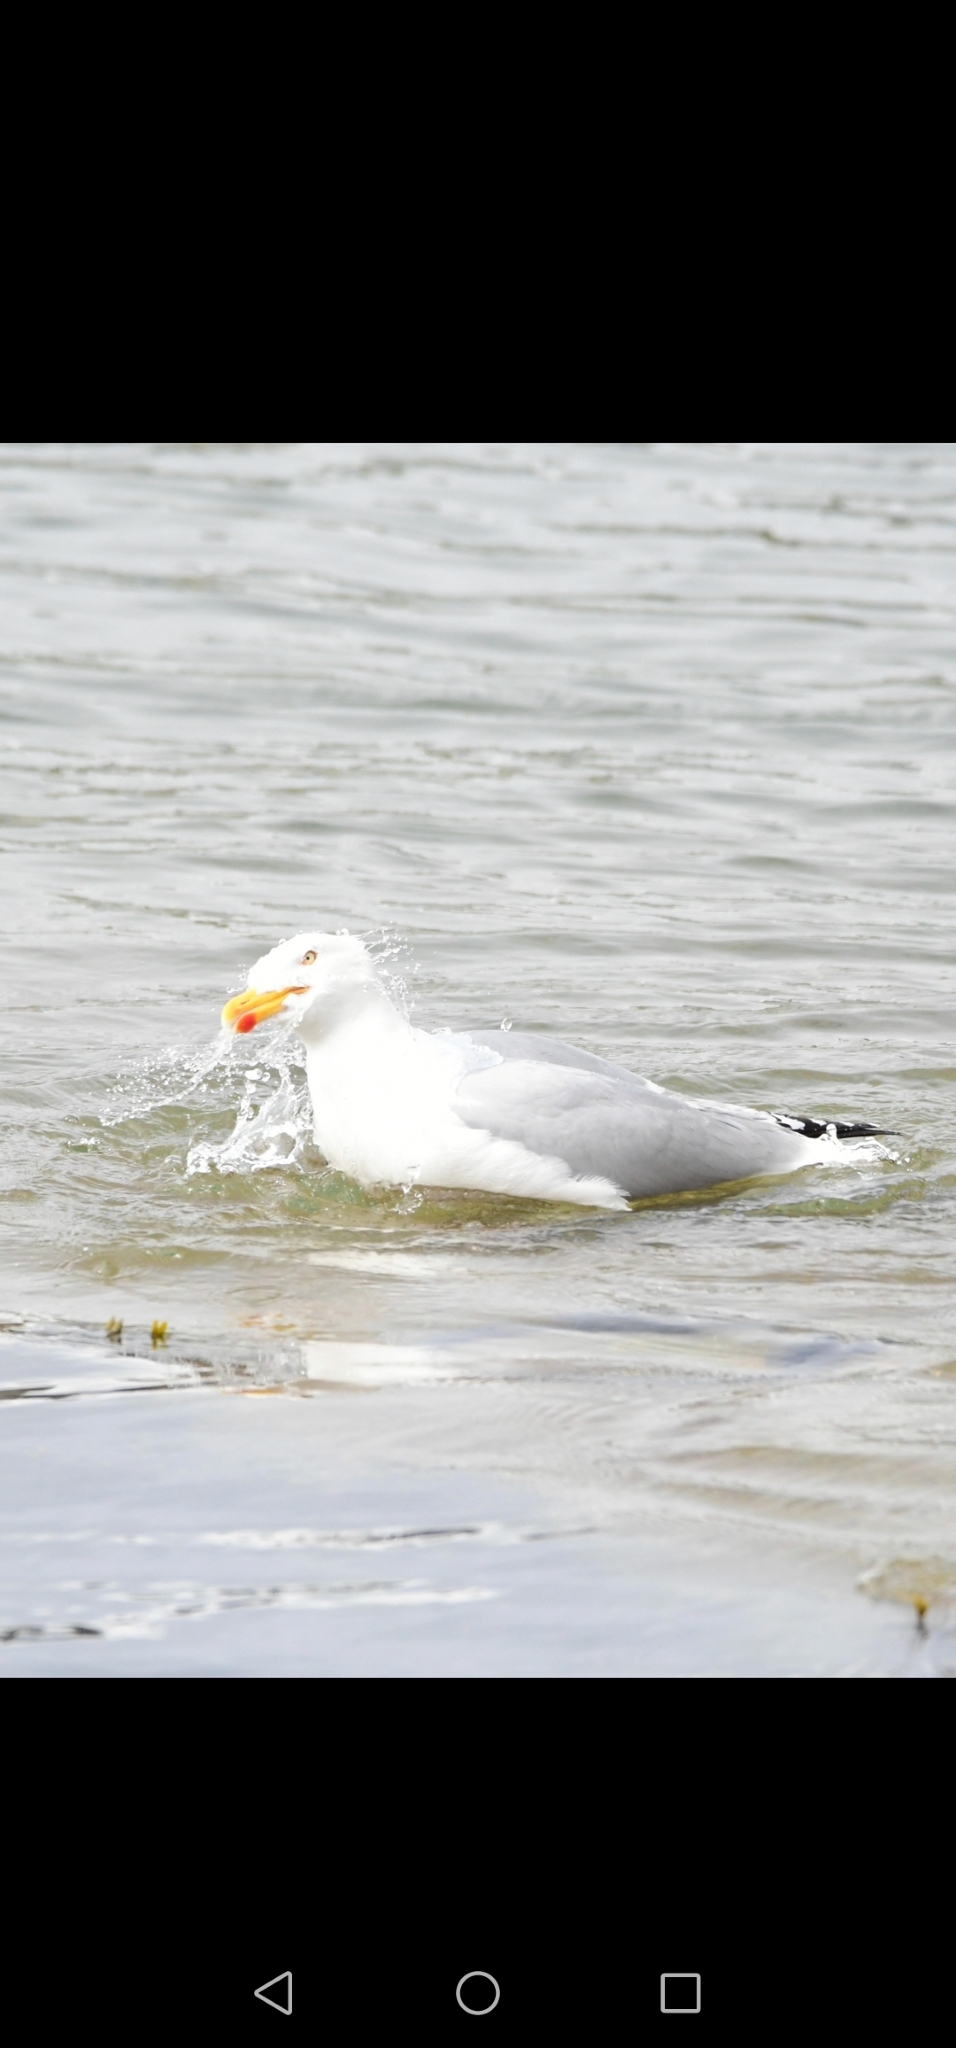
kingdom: Animalia
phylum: Chordata
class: Aves
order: Charadriiformes
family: Laridae
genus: Larus
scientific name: Larus argentatus
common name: Herring gull
